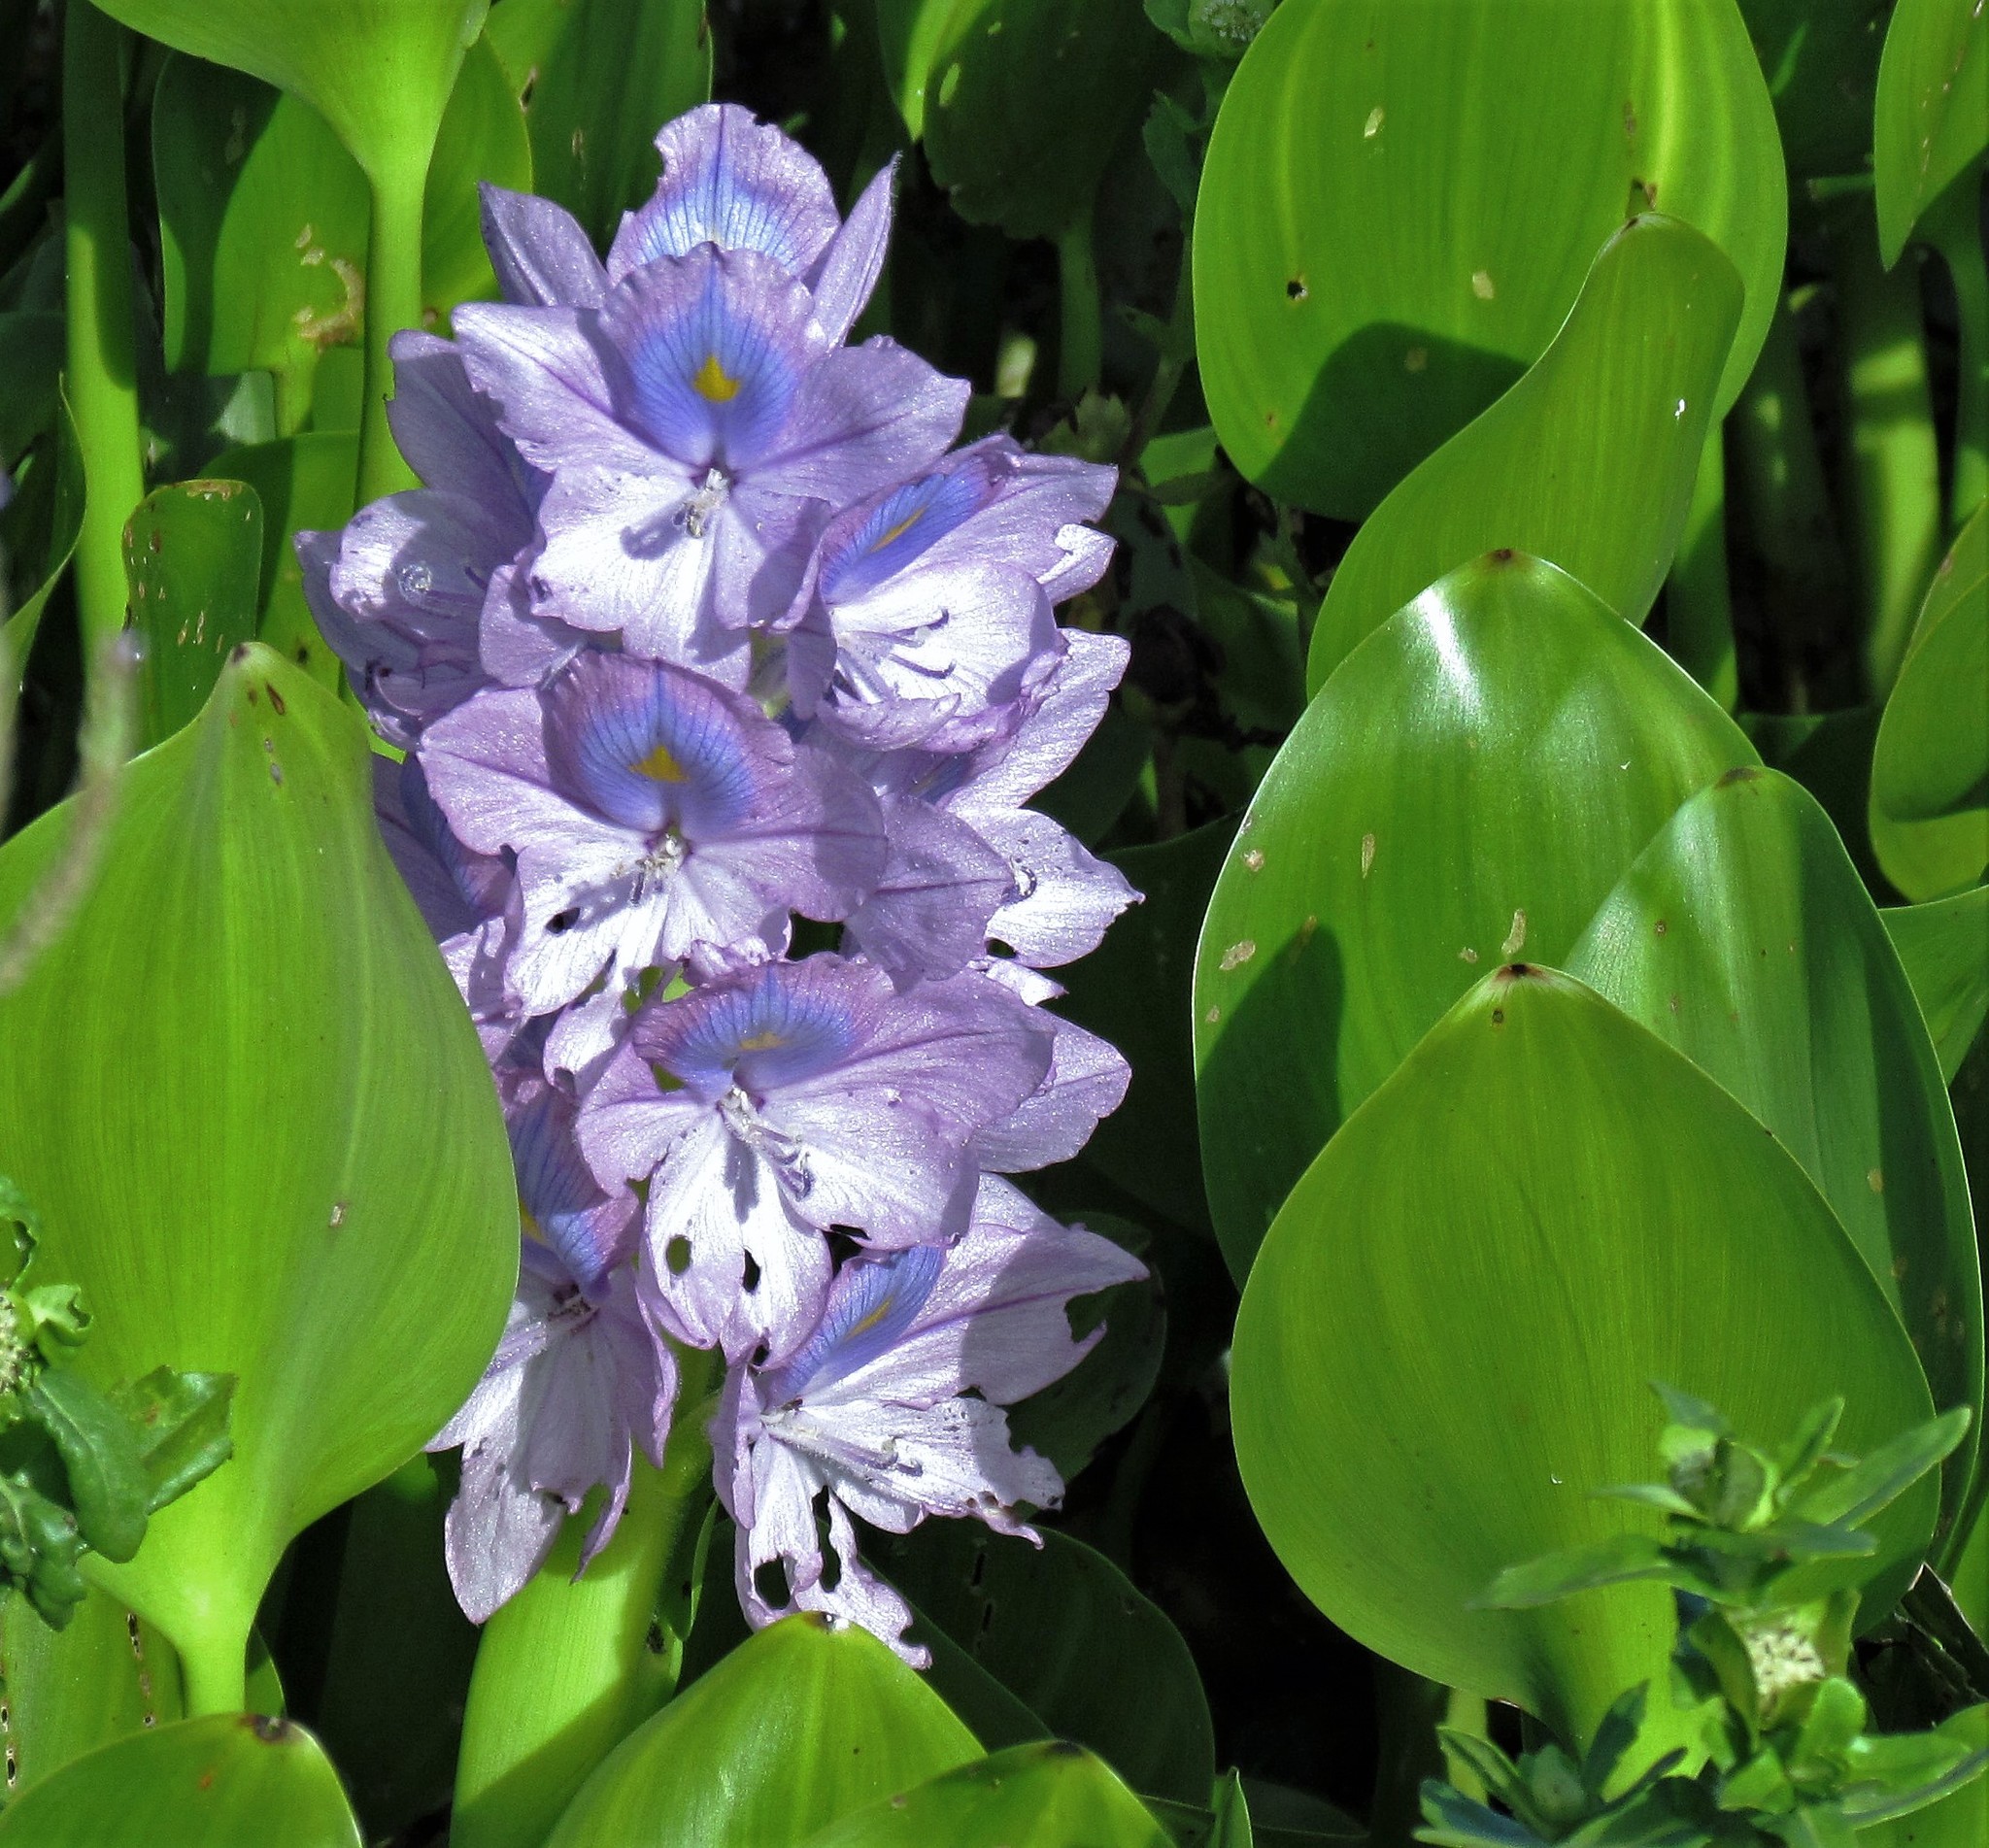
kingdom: Plantae
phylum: Tracheophyta
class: Liliopsida
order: Commelinales
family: Pontederiaceae
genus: Pontederia
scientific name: Pontederia crassipes
